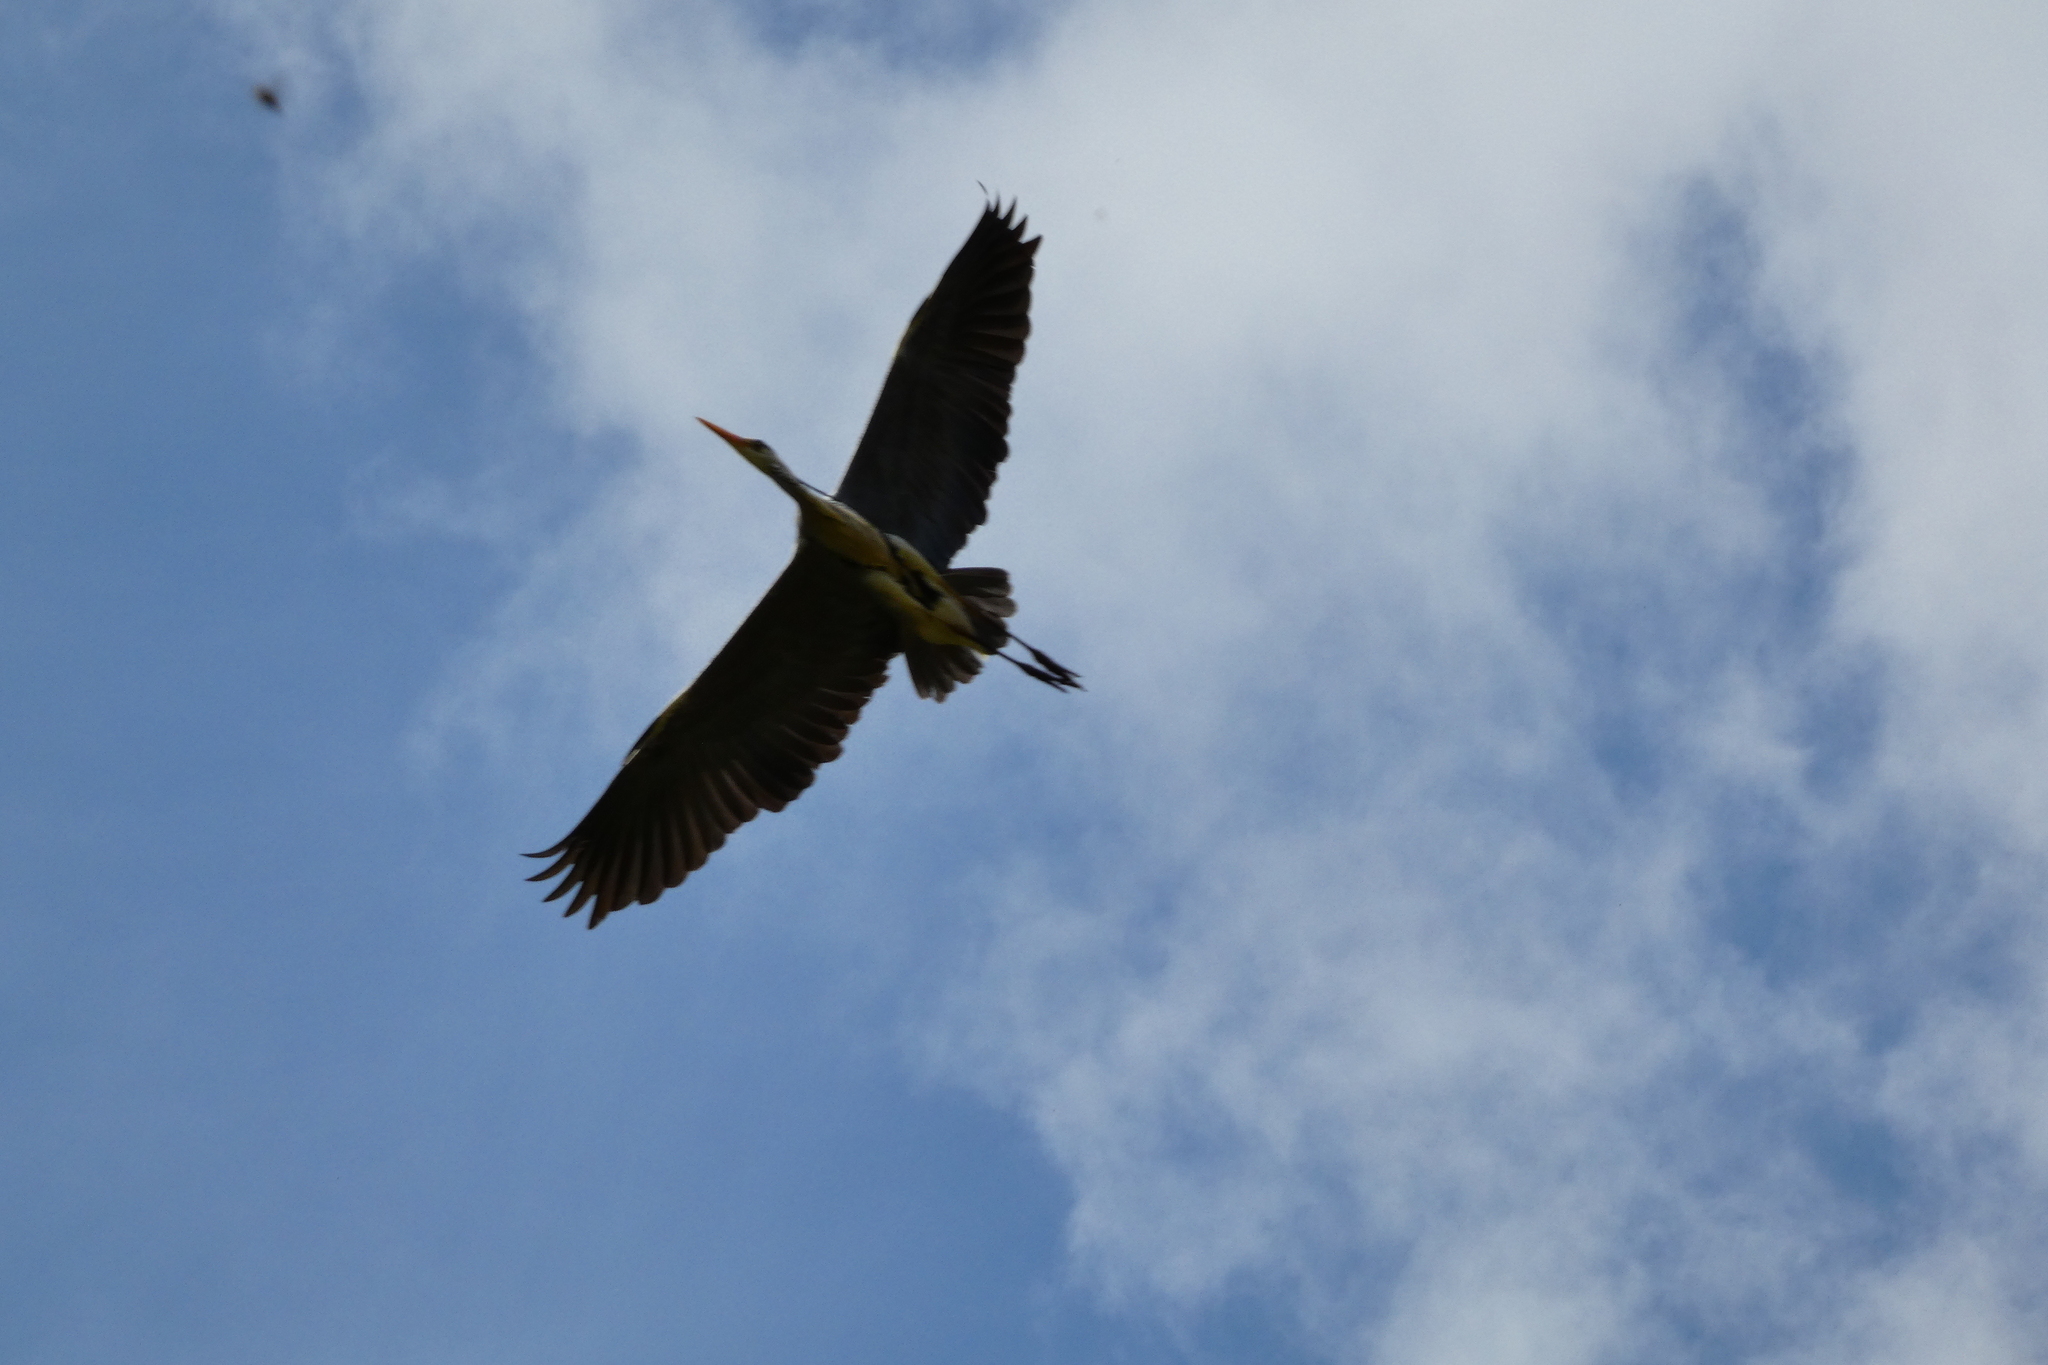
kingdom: Animalia
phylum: Chordata
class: Aves
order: Pelecaniformes
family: Ardeidae
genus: Ardea
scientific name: Ardea cinerea
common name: Grey heron
